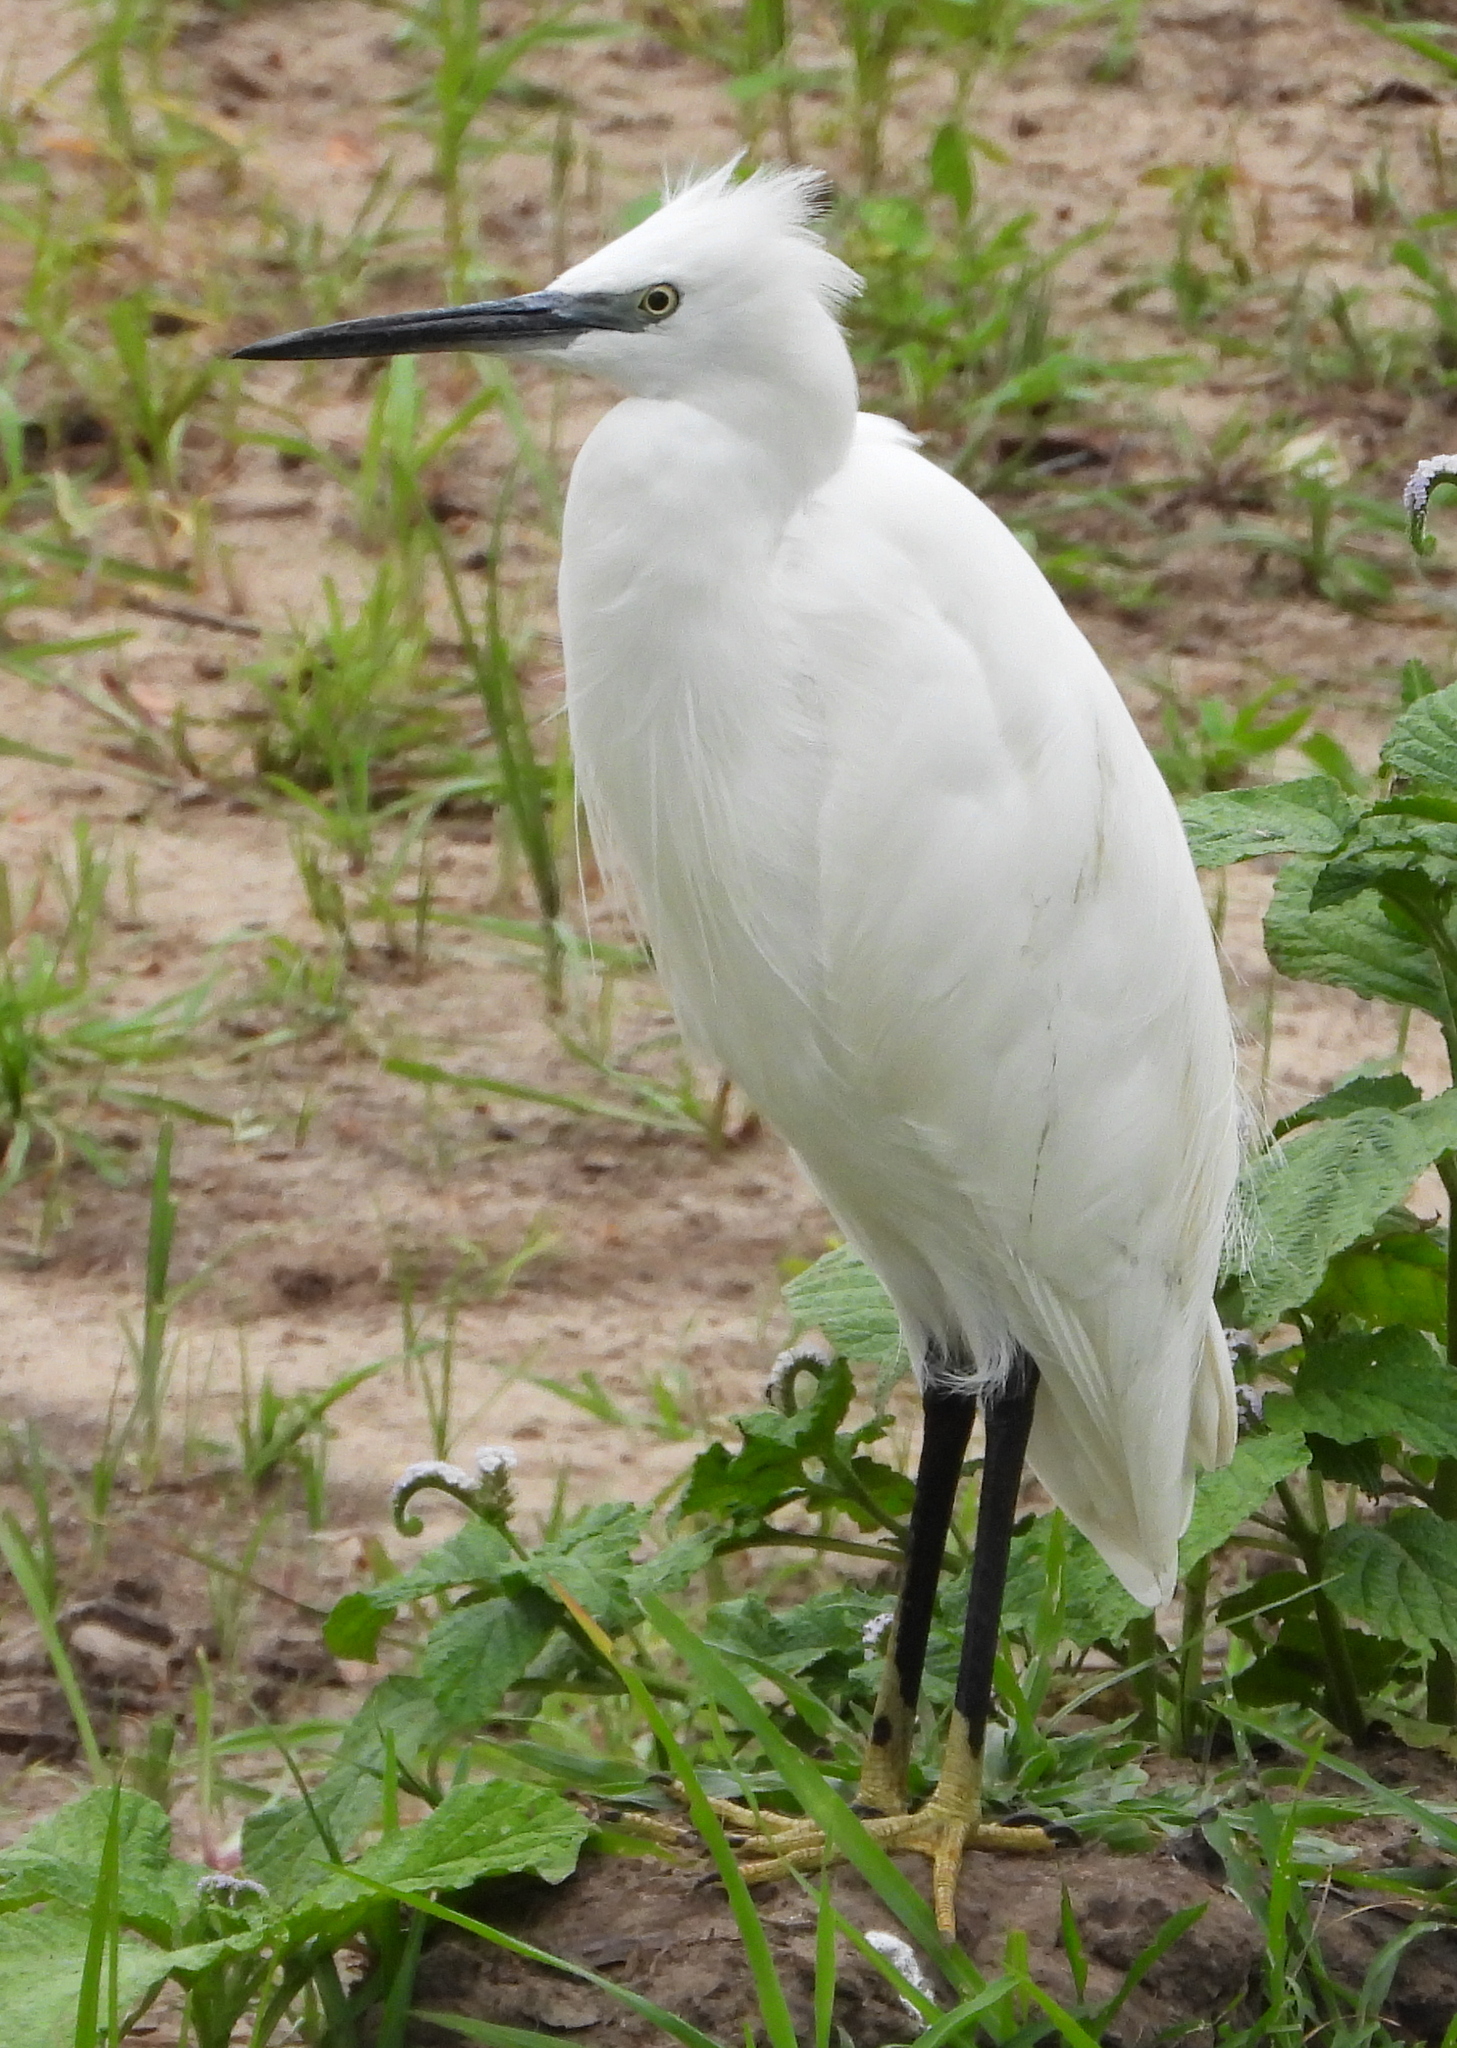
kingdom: Animalia
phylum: Chordata
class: Aves
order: Pelecaniformes
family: Ardeidae
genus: Egretta
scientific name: Egretta garzetta
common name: Little egret
